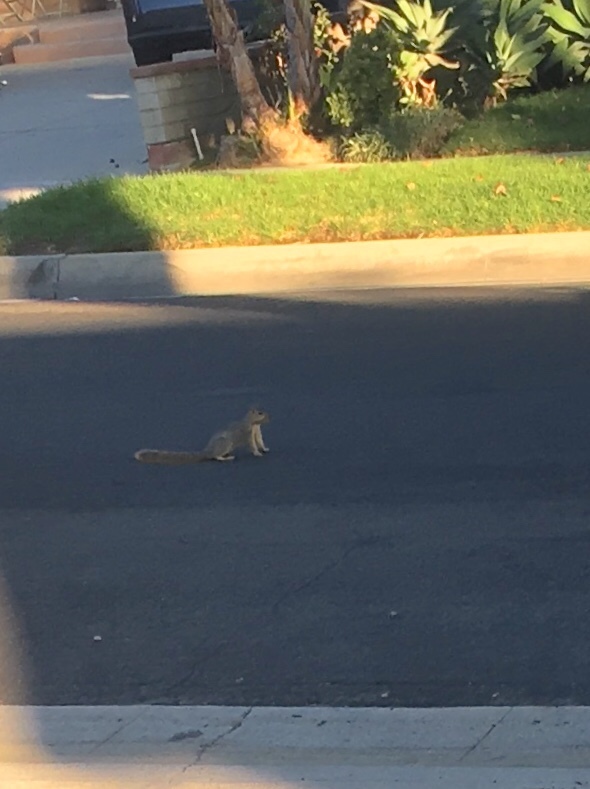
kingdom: Animalia
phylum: Chordata
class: Mammalia
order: Rodentia
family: Sciuridae
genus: Sciurus
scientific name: Sciurus niger
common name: Fox squirrel
